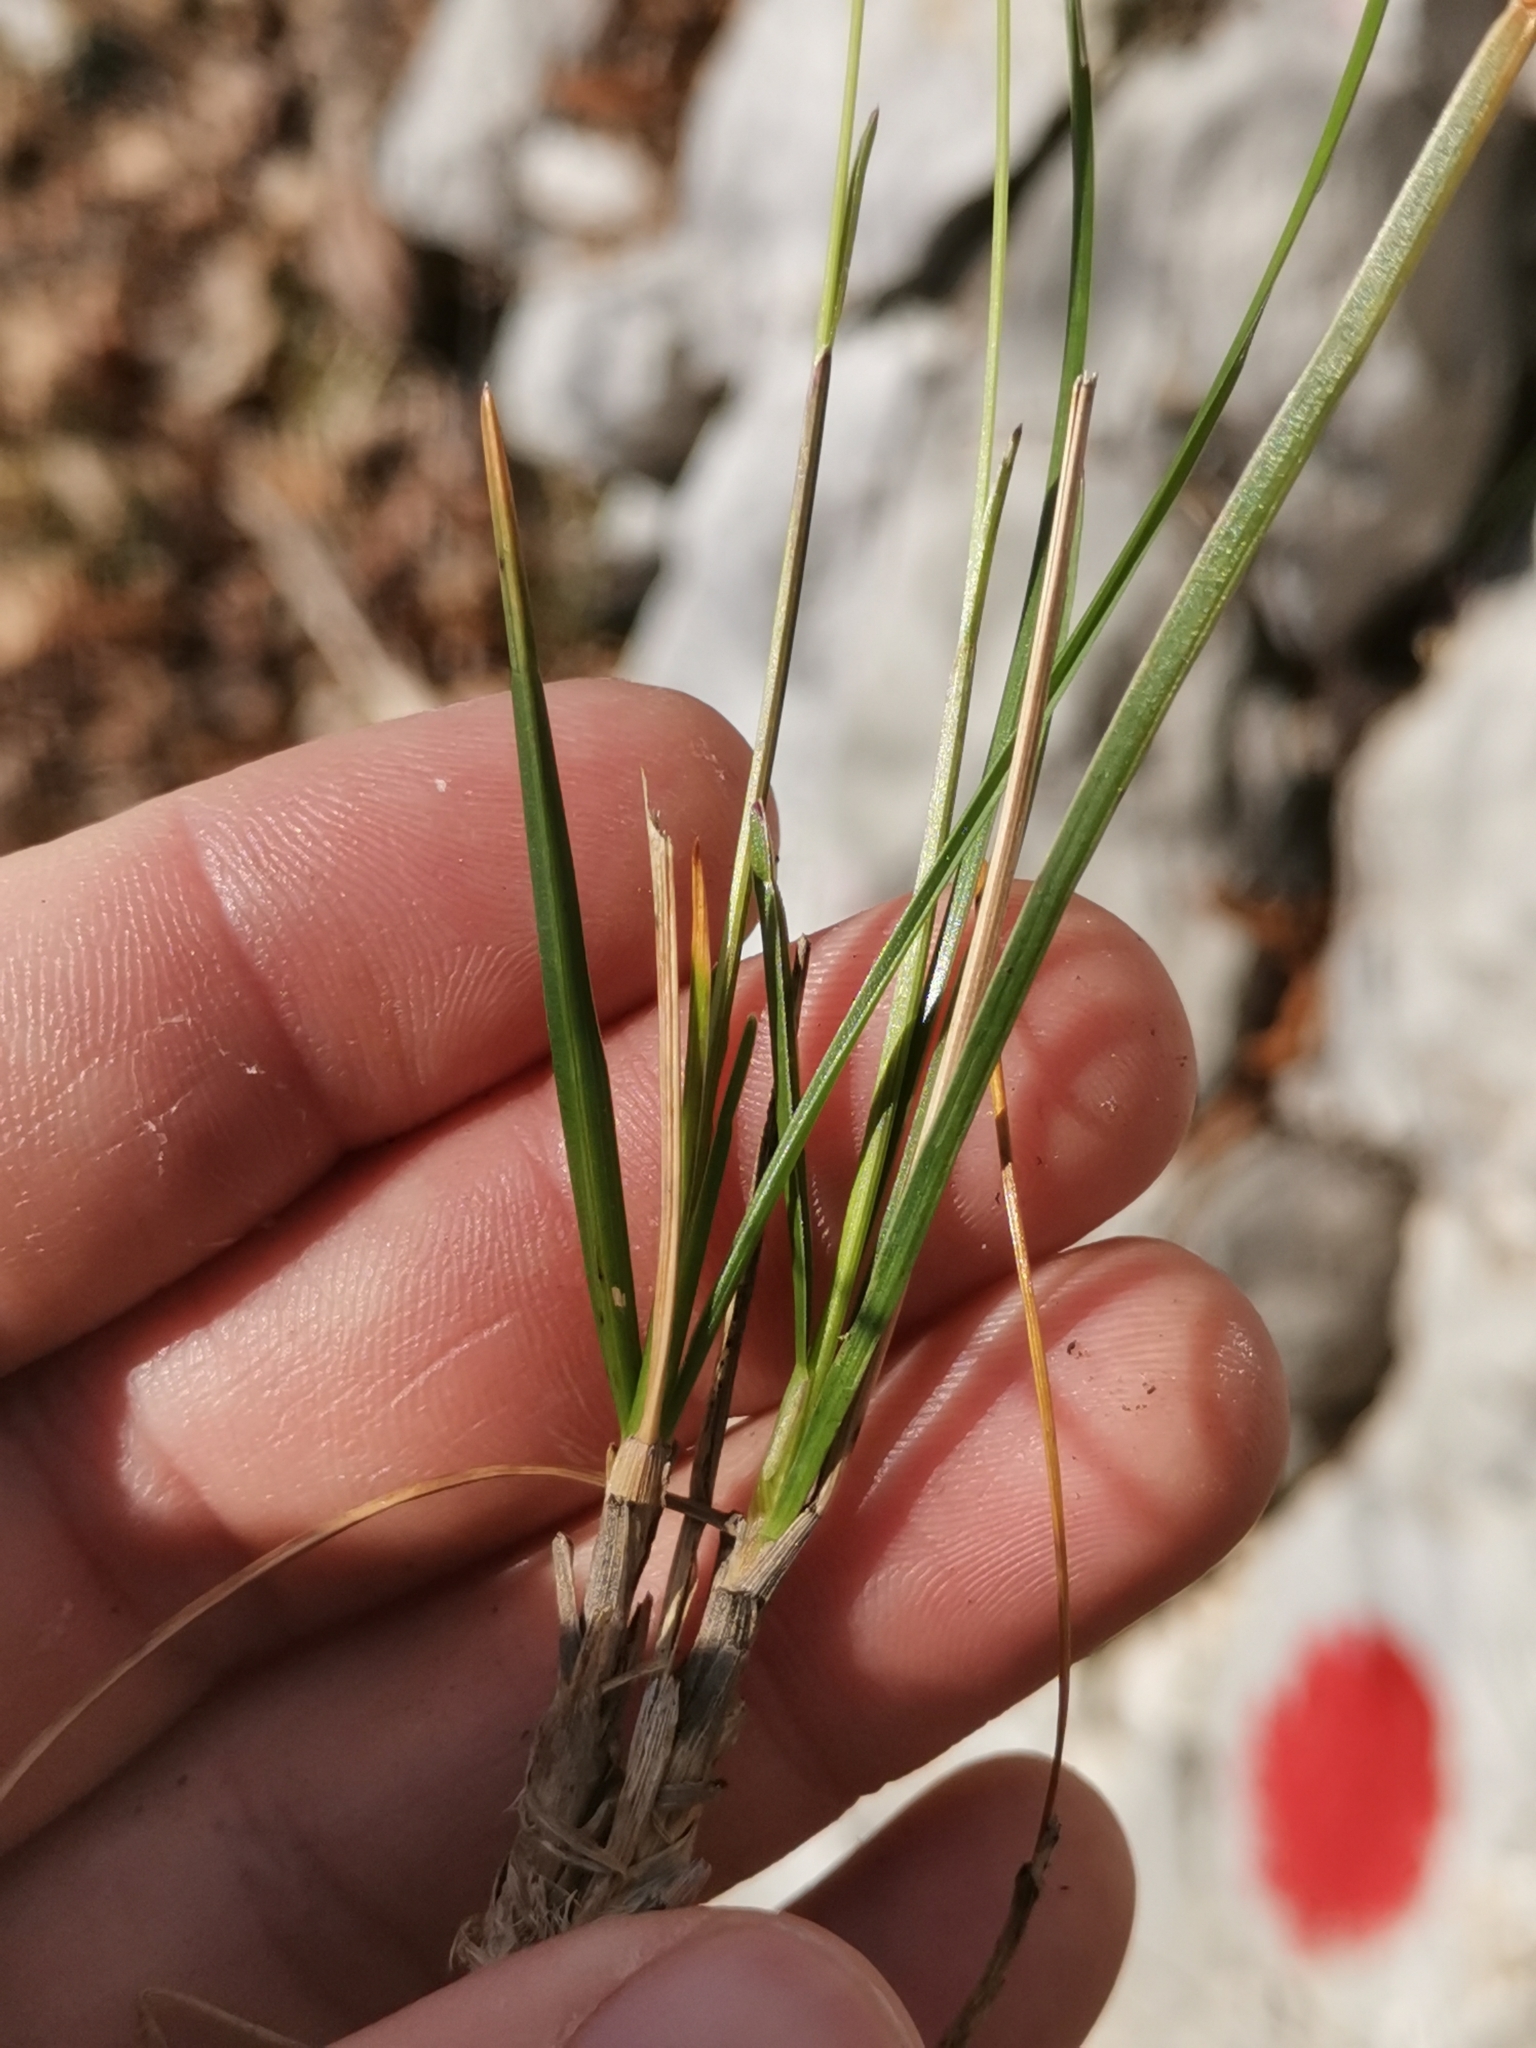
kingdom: Plantae
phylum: Tracheophyta
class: Liliopsida
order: Poales
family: Poaceae
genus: Sesleria
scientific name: Sesleria caerulea
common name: Blue moor-grass
